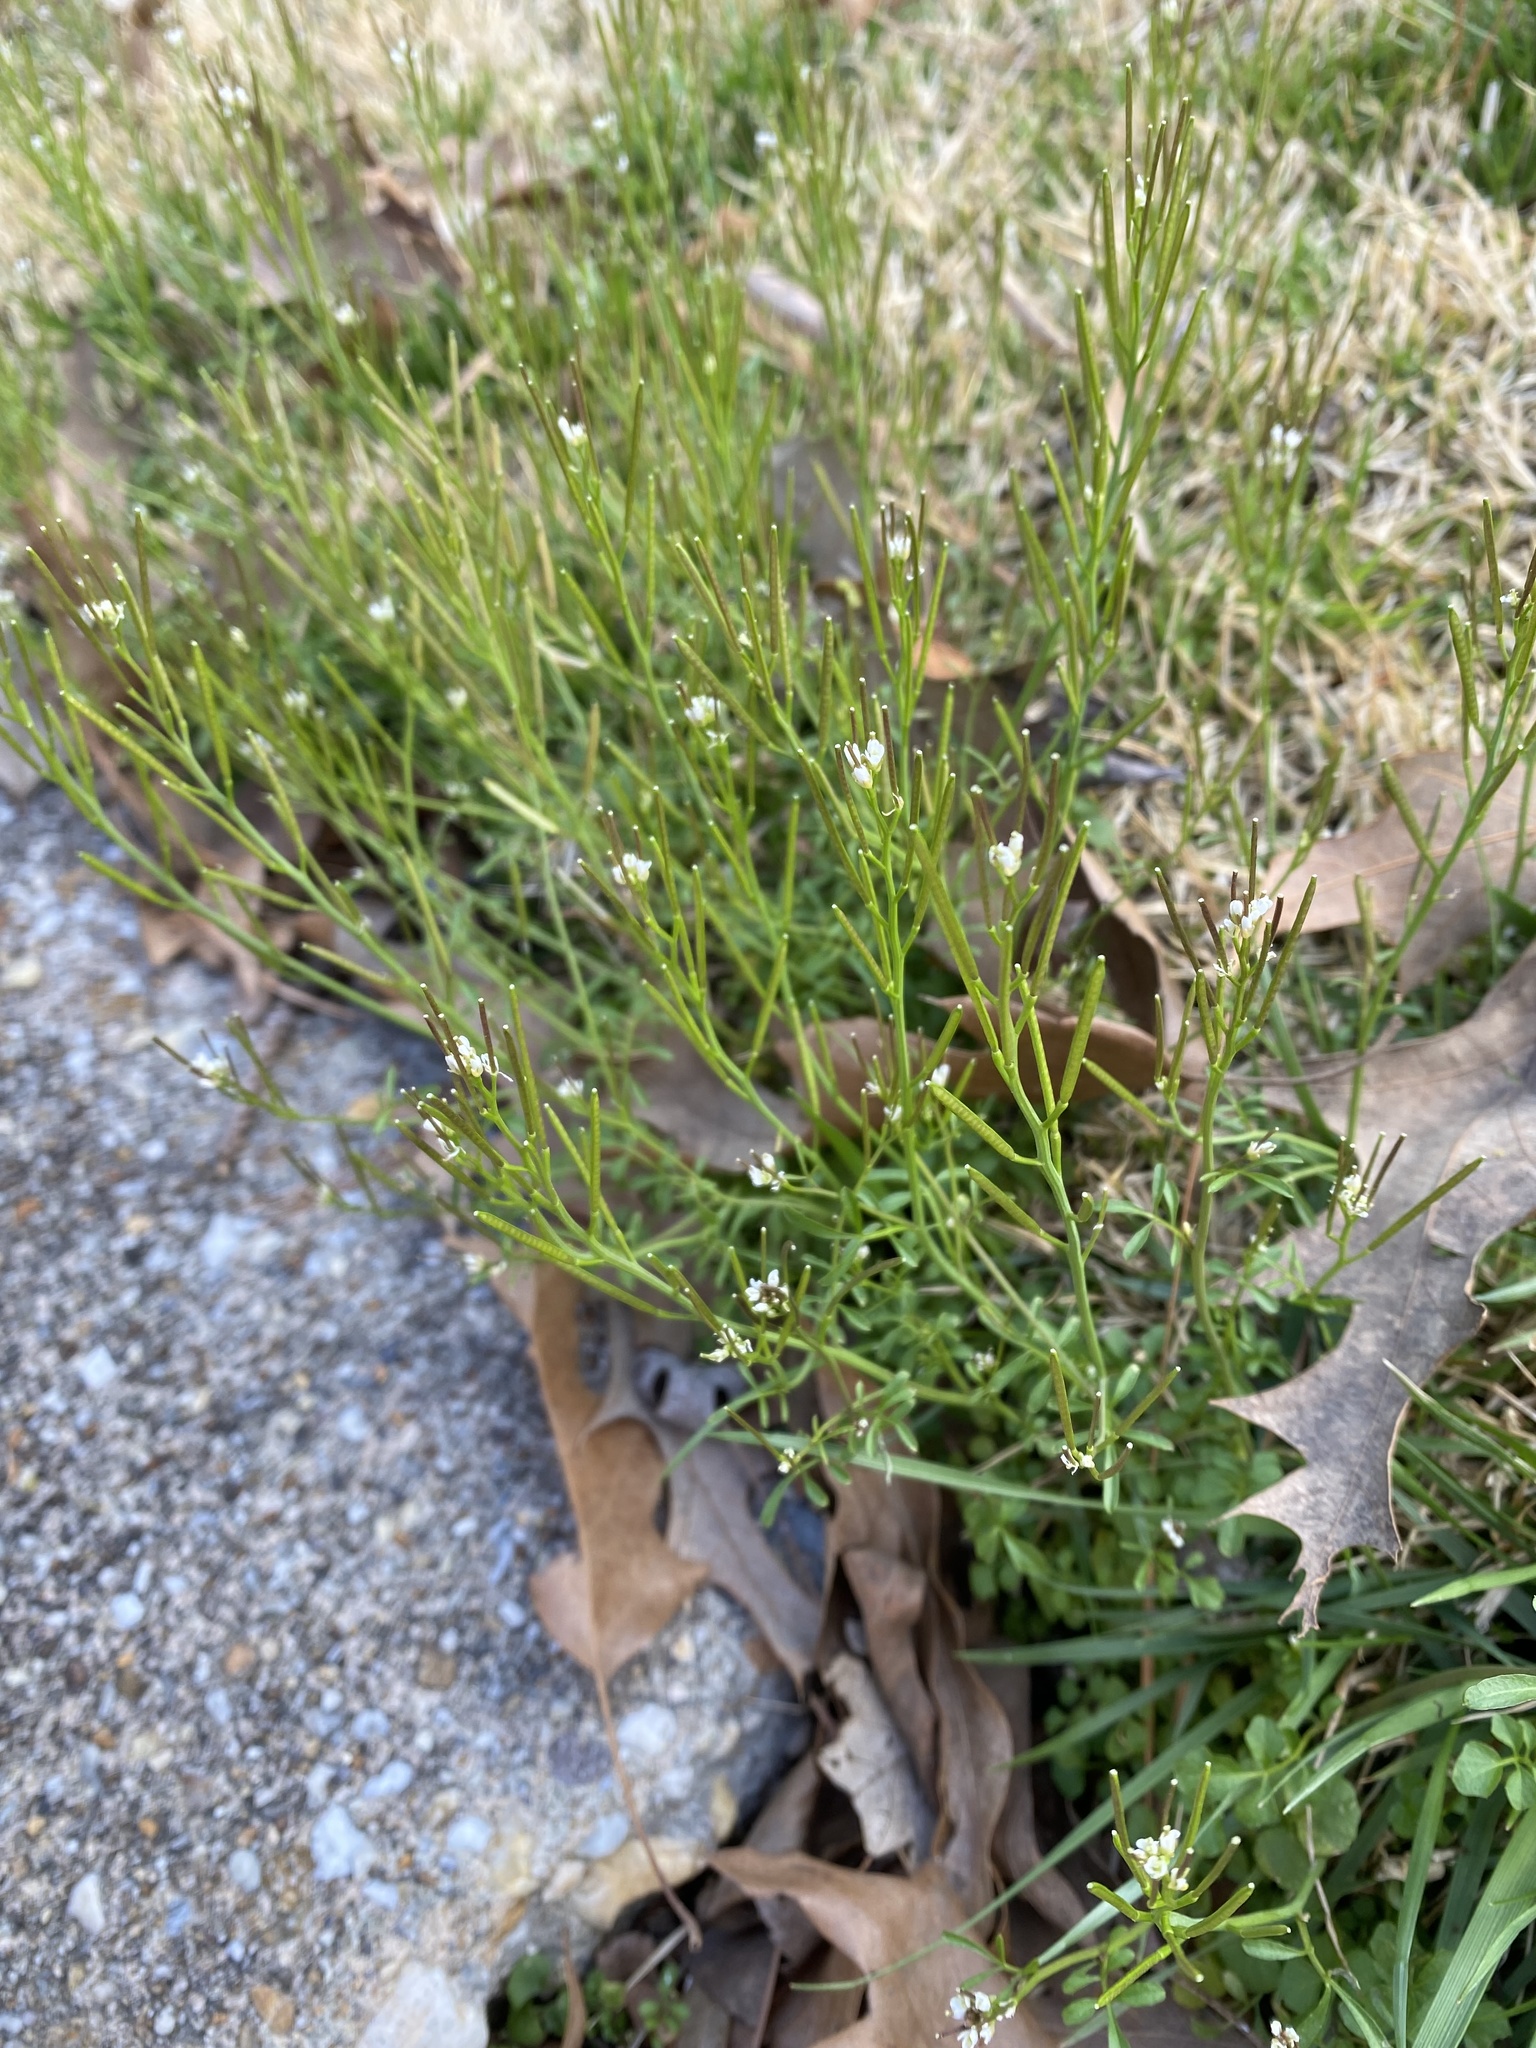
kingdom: Plantae
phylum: Tracheophyta
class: Magnoliopsida
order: Brassicales
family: Brassicaceae
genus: Cardamine
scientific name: Cardamine hirsuta
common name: Hairy bittercress
